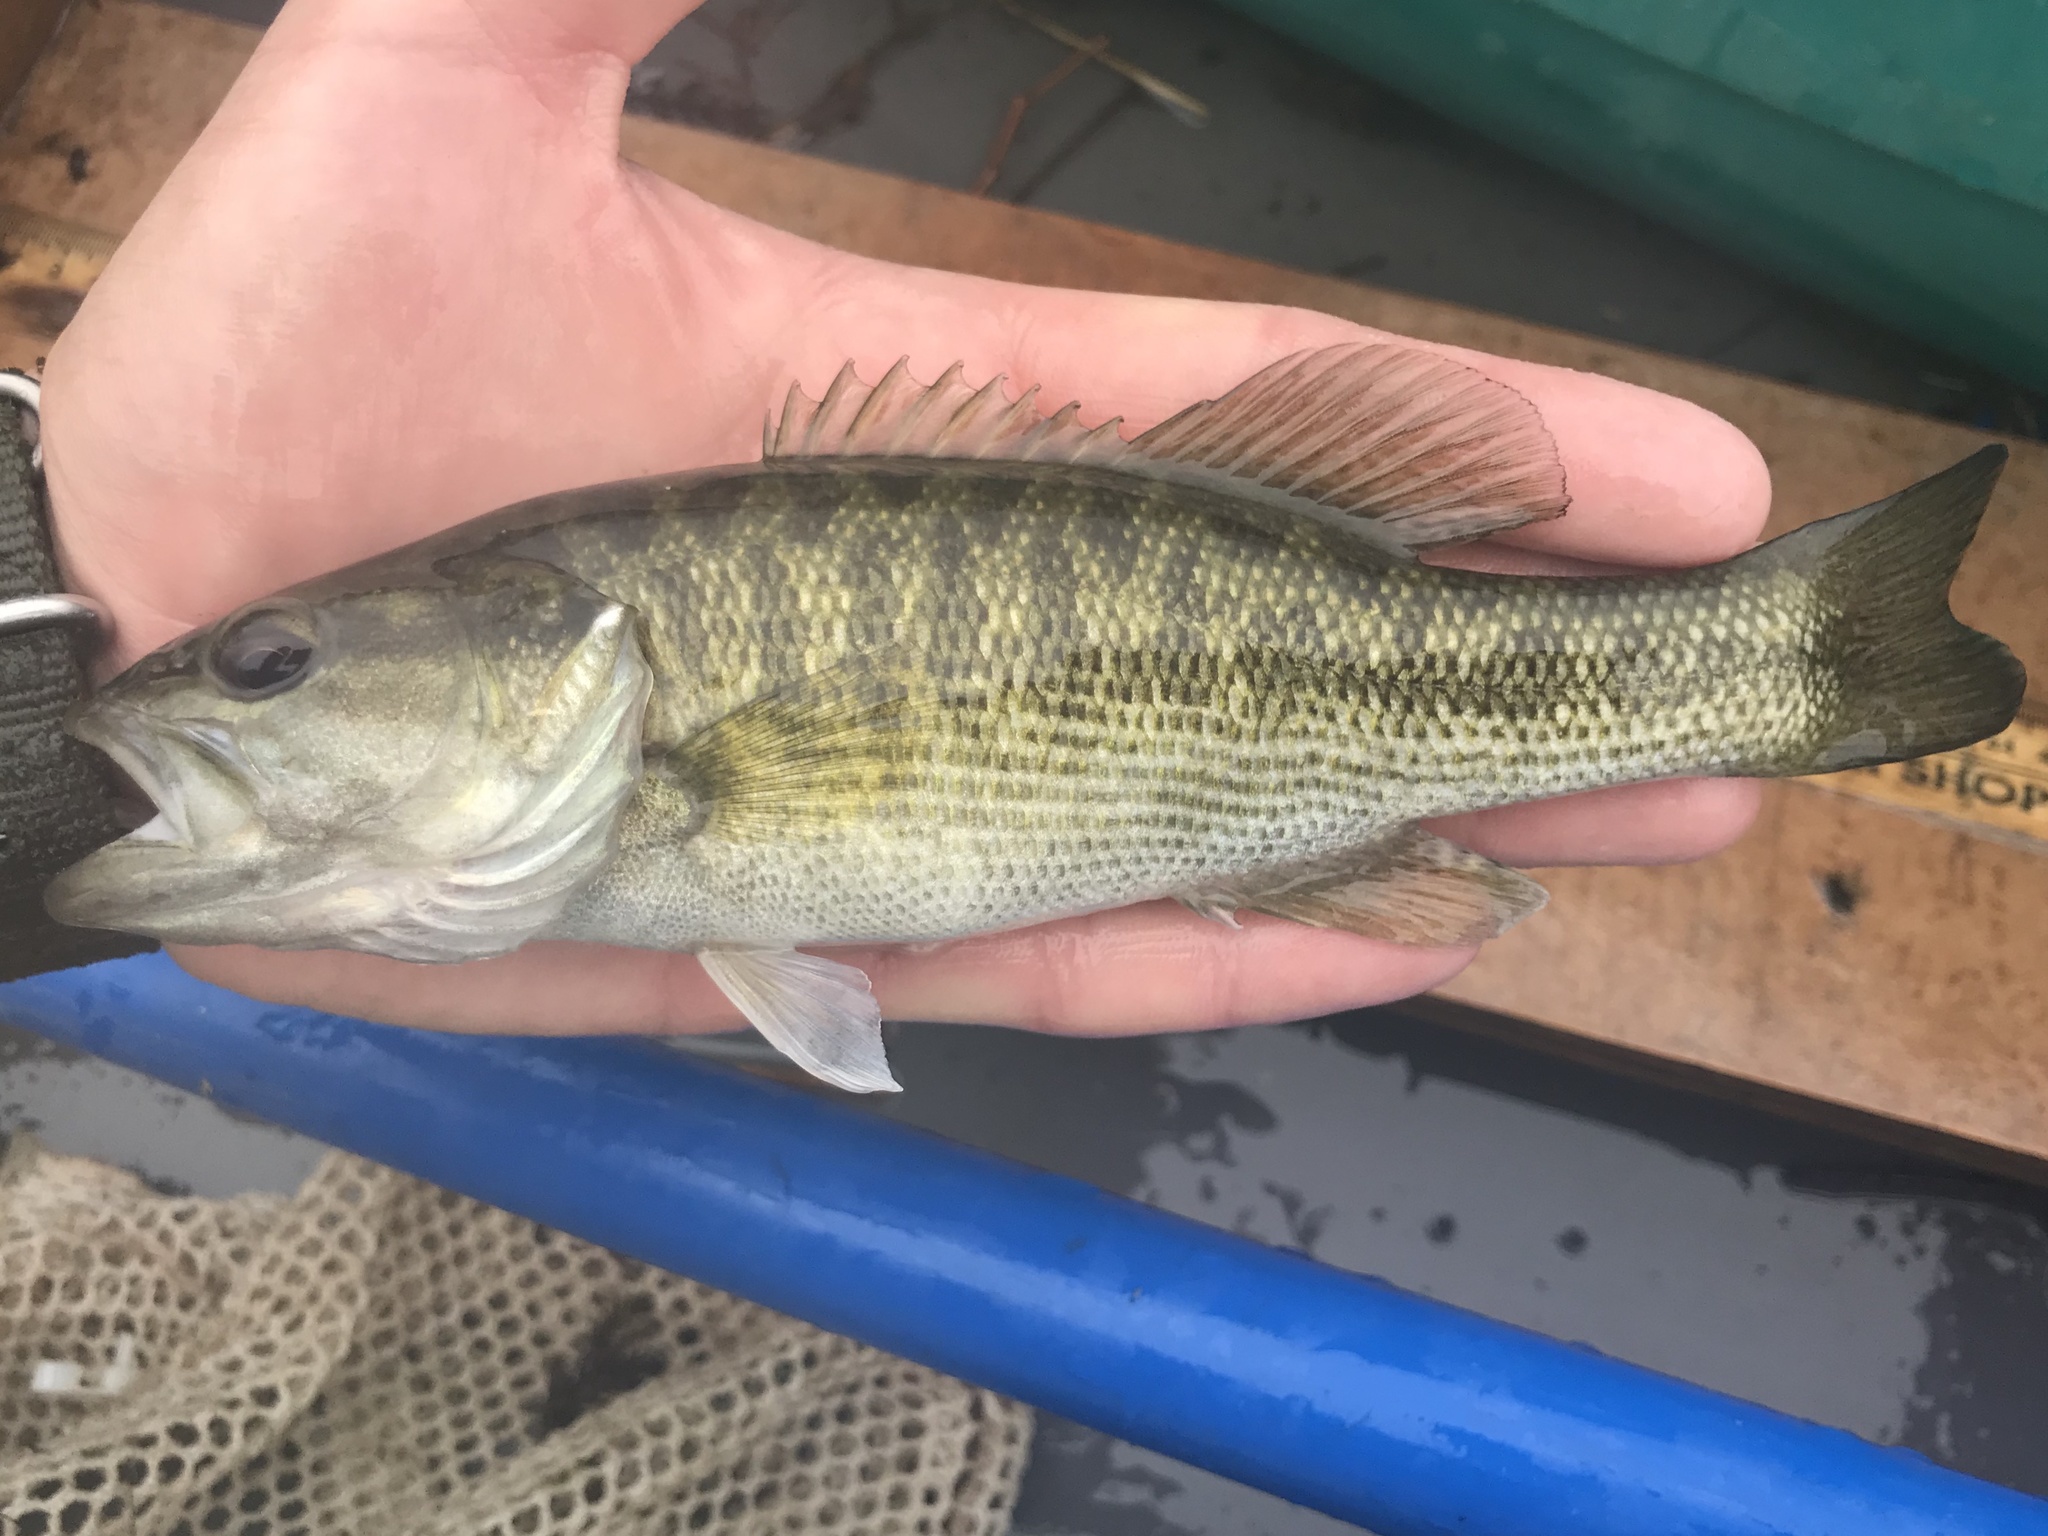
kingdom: Animalia
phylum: Chordata
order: Perciformes
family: Centrarchidae
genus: Micropterus
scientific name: Micropterus treculii
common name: Guadalupe bass
